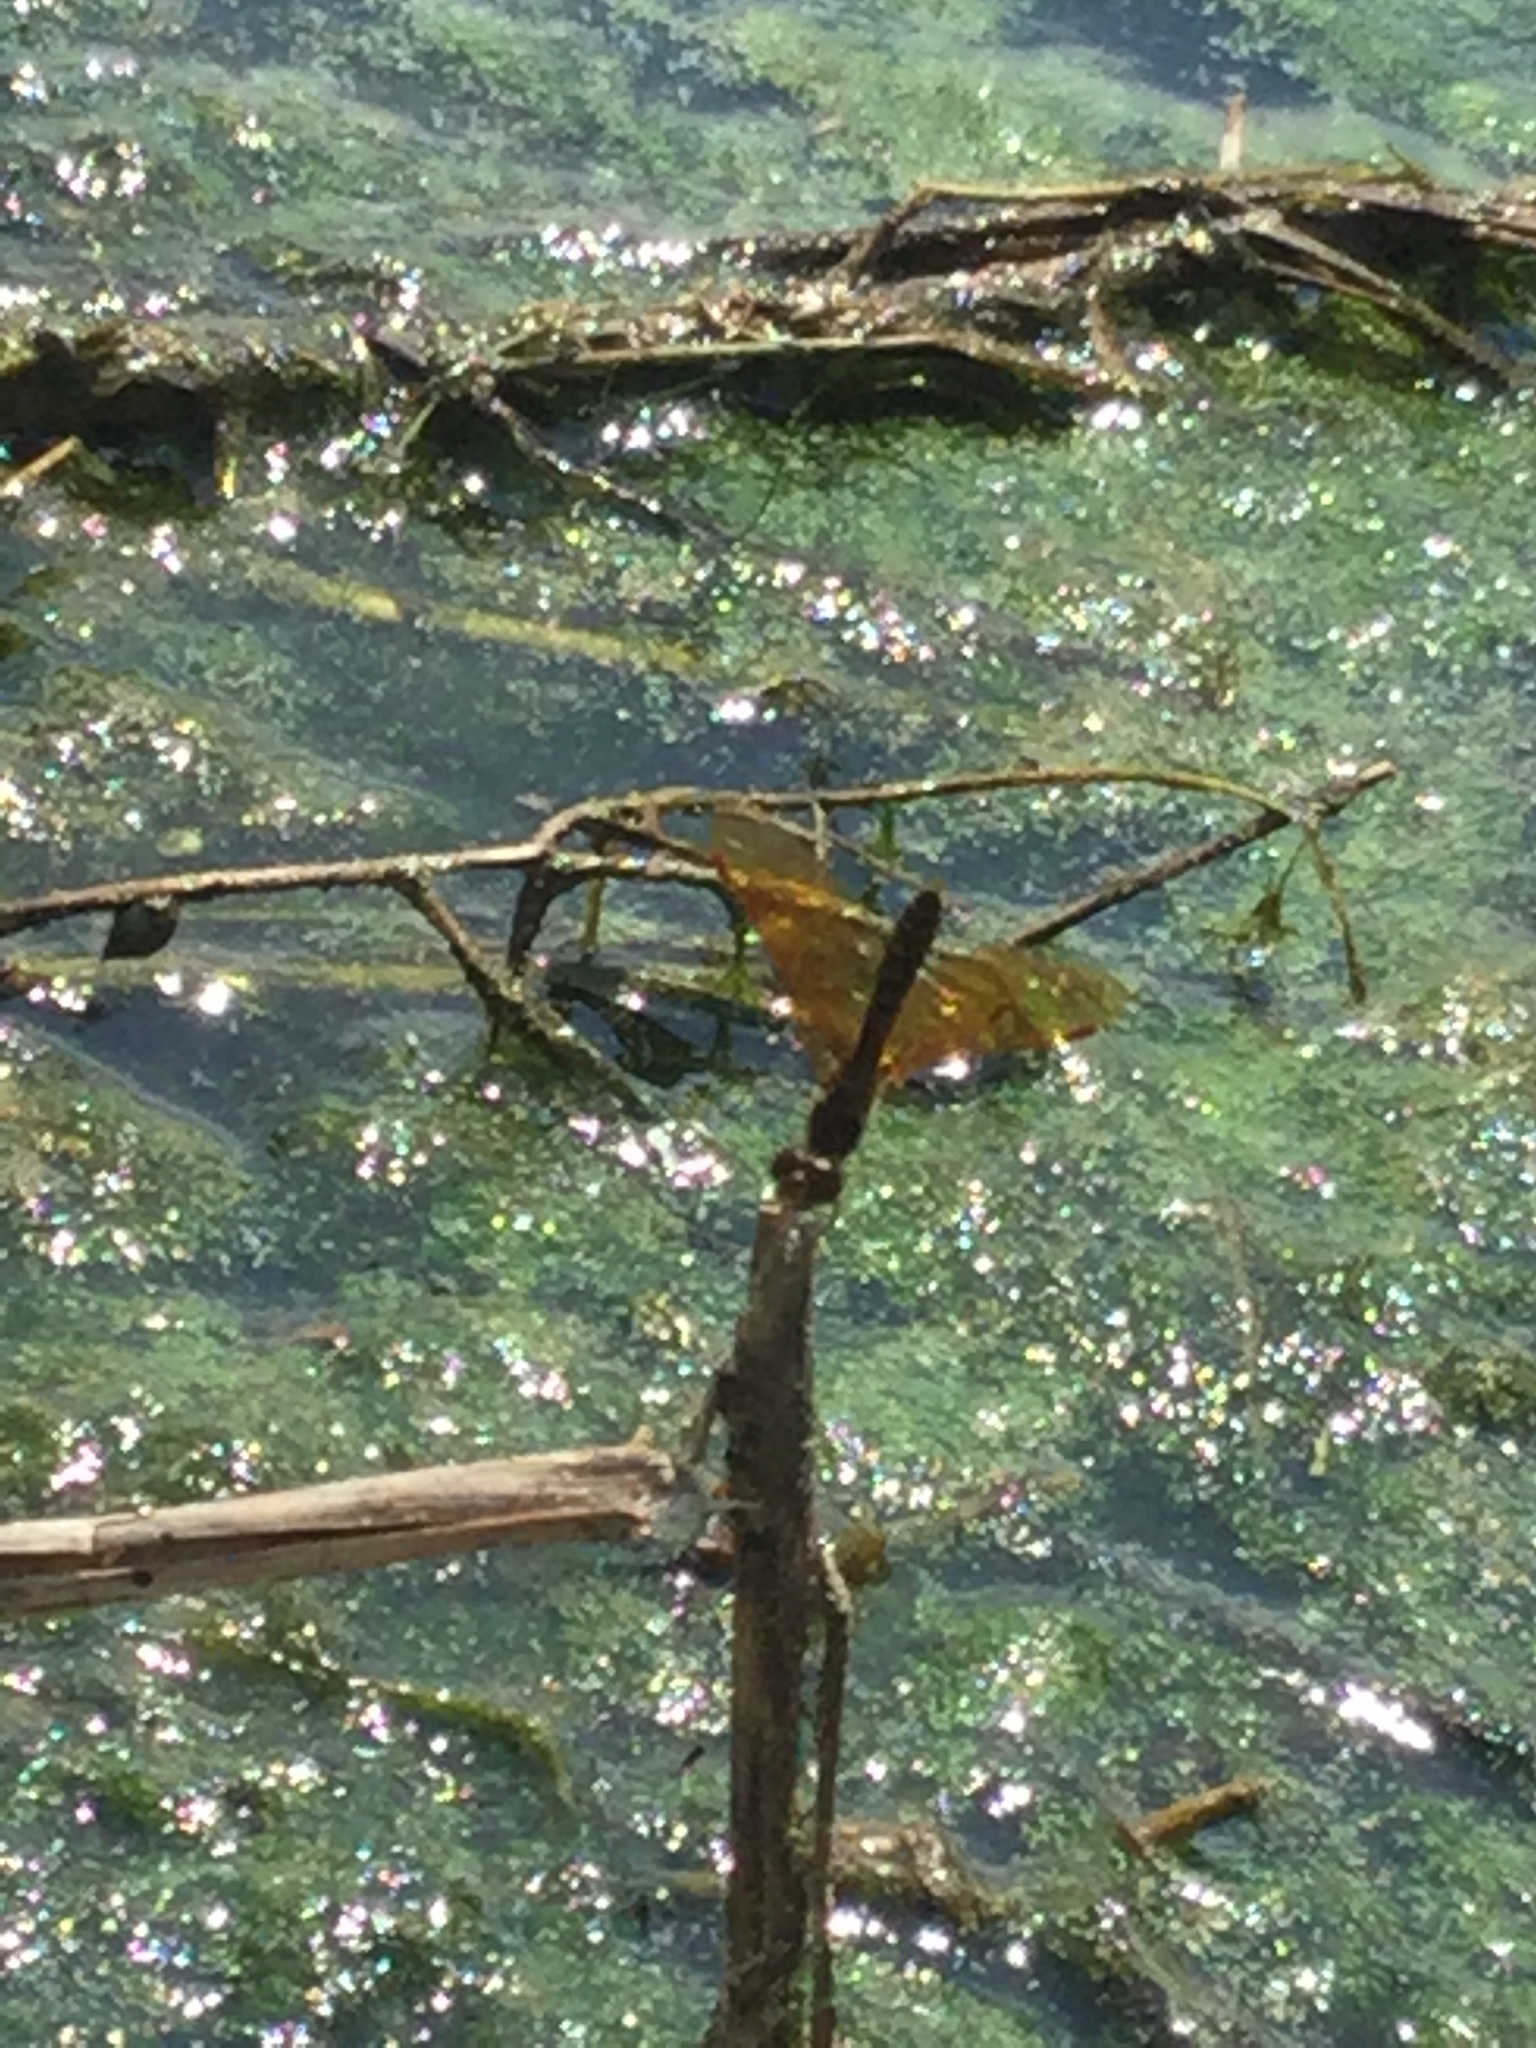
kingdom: Animalia
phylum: Arthropoda
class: Insecta
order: Odonata
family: Libellulidae
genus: Perithemis
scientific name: Perithemis tenera
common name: Eastern amberwing
